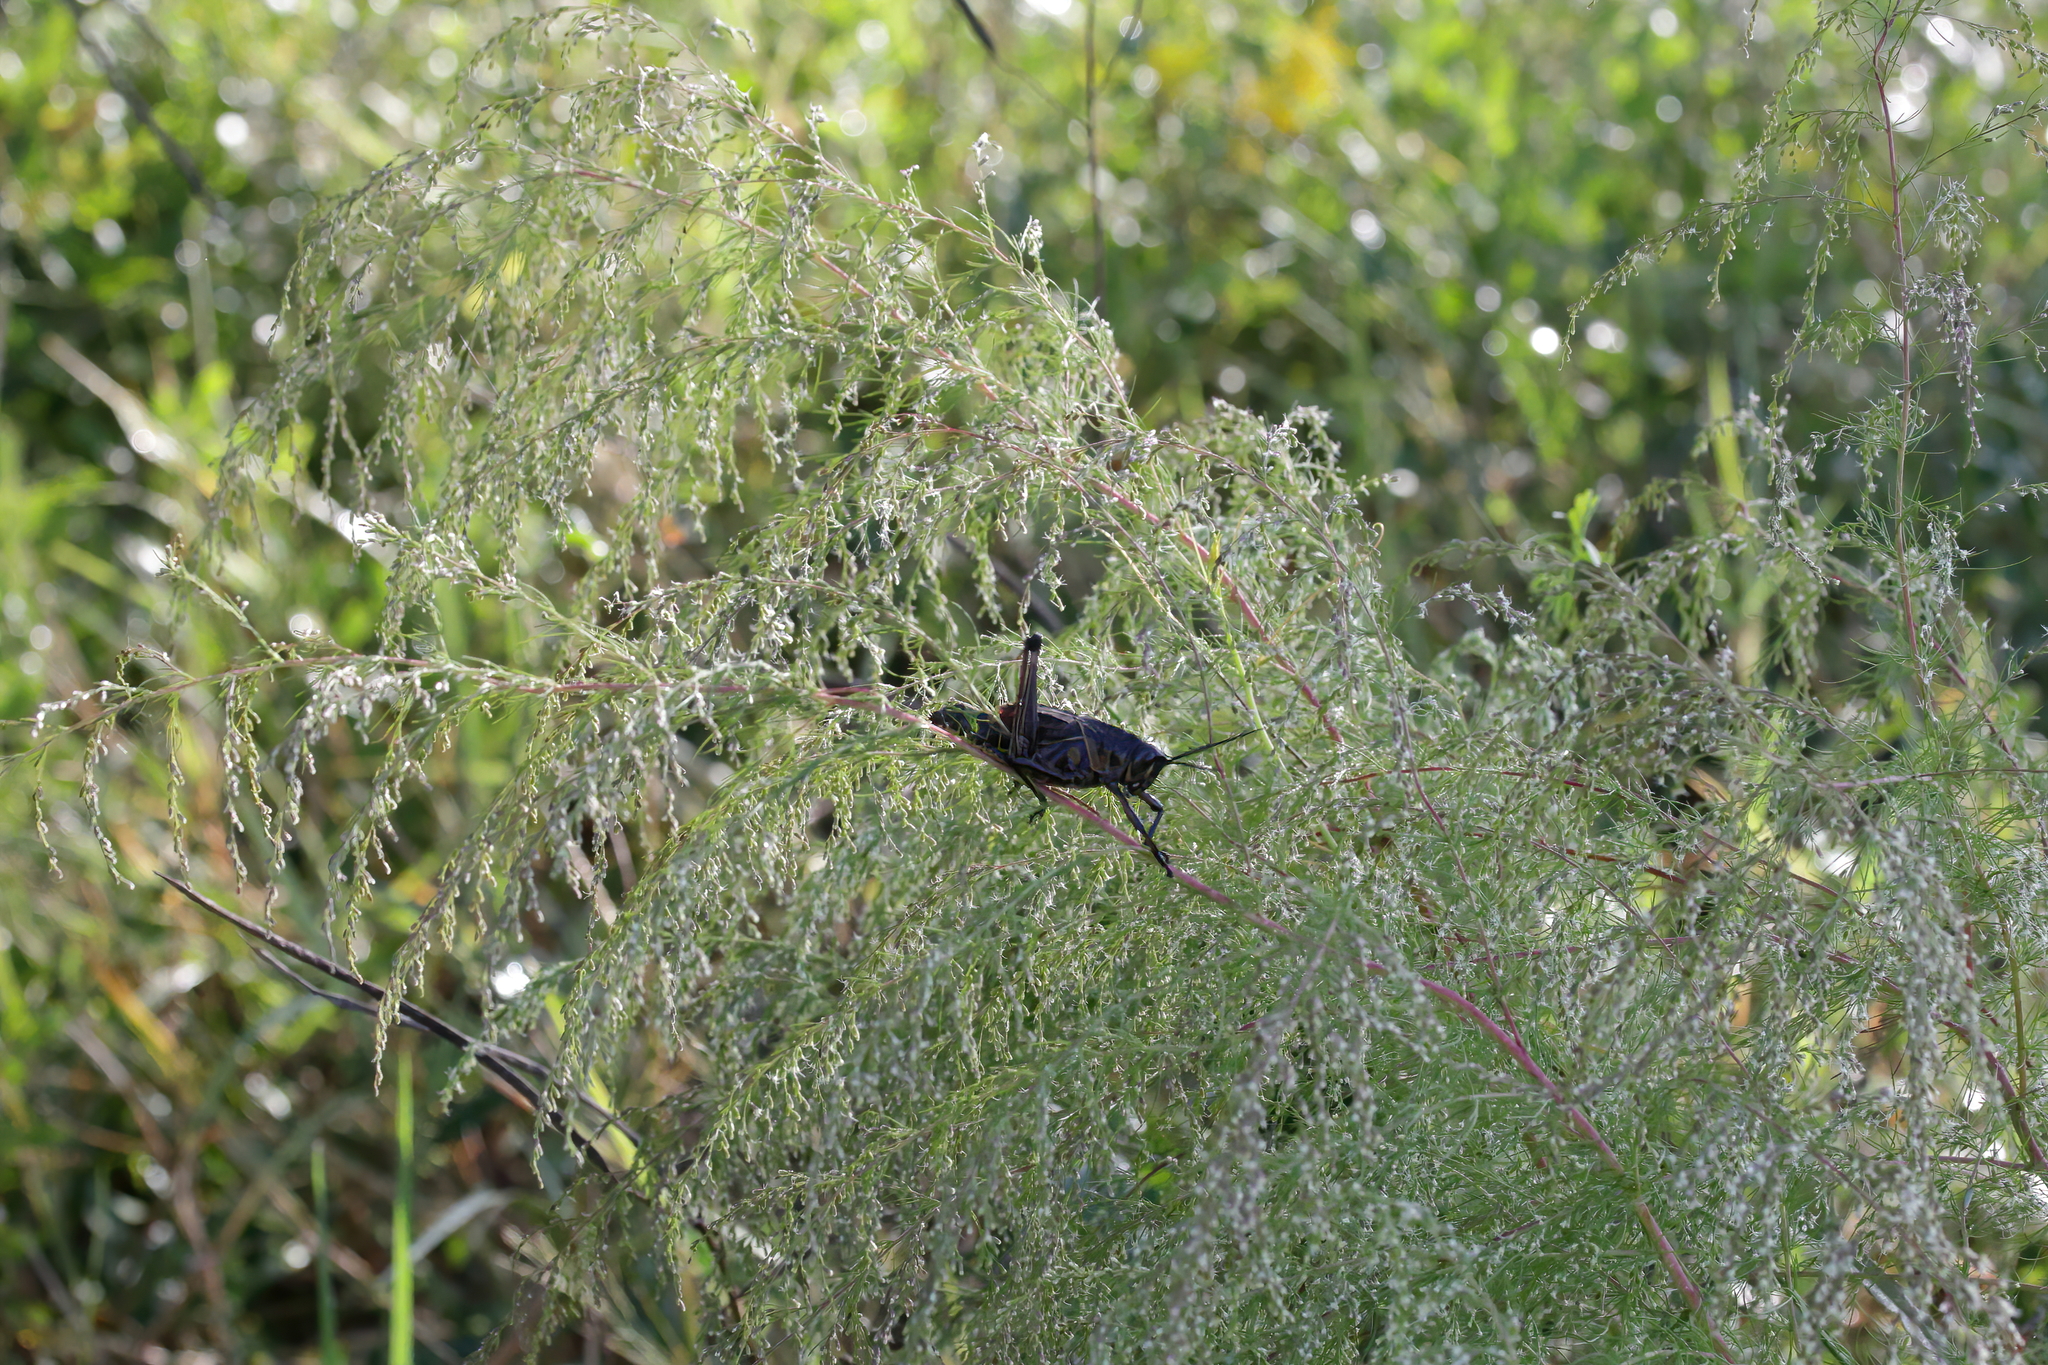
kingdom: Animalia
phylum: Arthropoda
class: Insecta
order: Orthoptera
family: Romaleidae
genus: Romalea
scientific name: Romalea microptera
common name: Eastern lubber grasshopper
